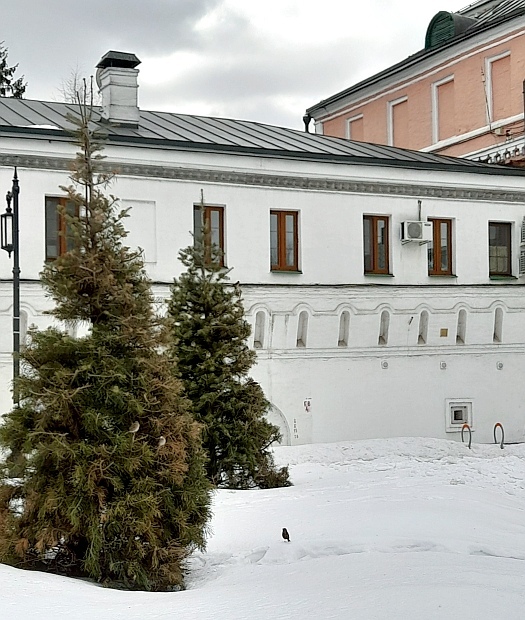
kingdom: Animalia
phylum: Chordata
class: Aves
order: Passeriformes
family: Passeridae
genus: Passer
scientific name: Passer domesticus
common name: House sparrow
